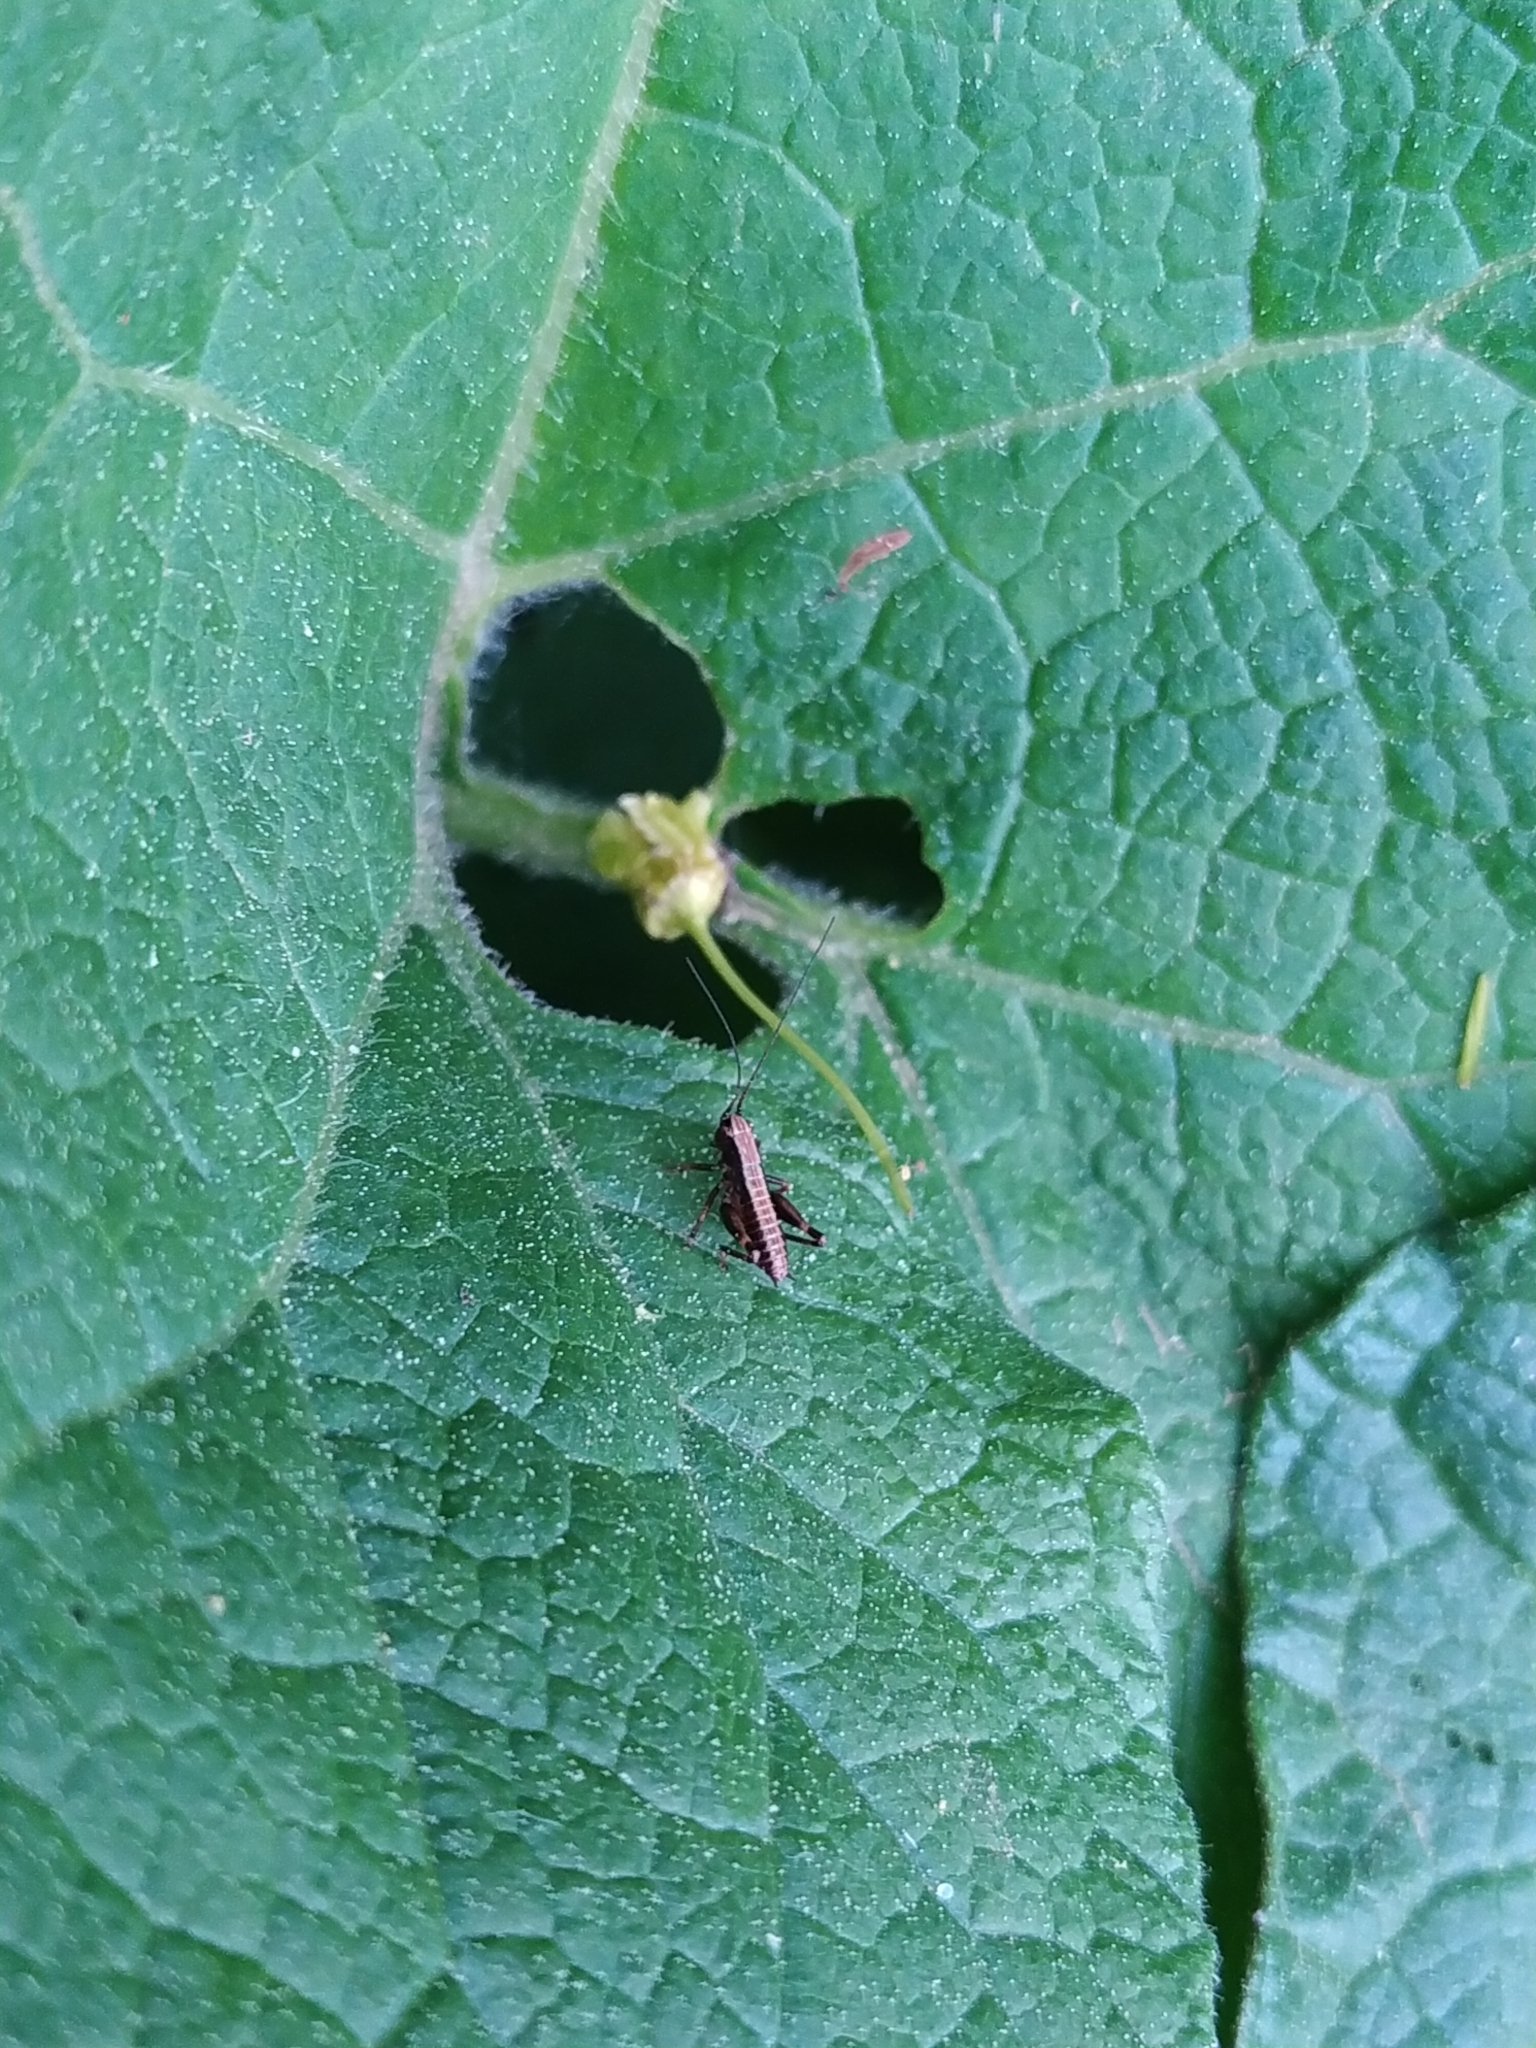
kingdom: Animalia
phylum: Arthropoda
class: Insecta
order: Orthoptera
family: Tettigoniidae
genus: Pholidoptera
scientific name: Pholidoptera griseoaptera
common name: Dark bush-cricket
